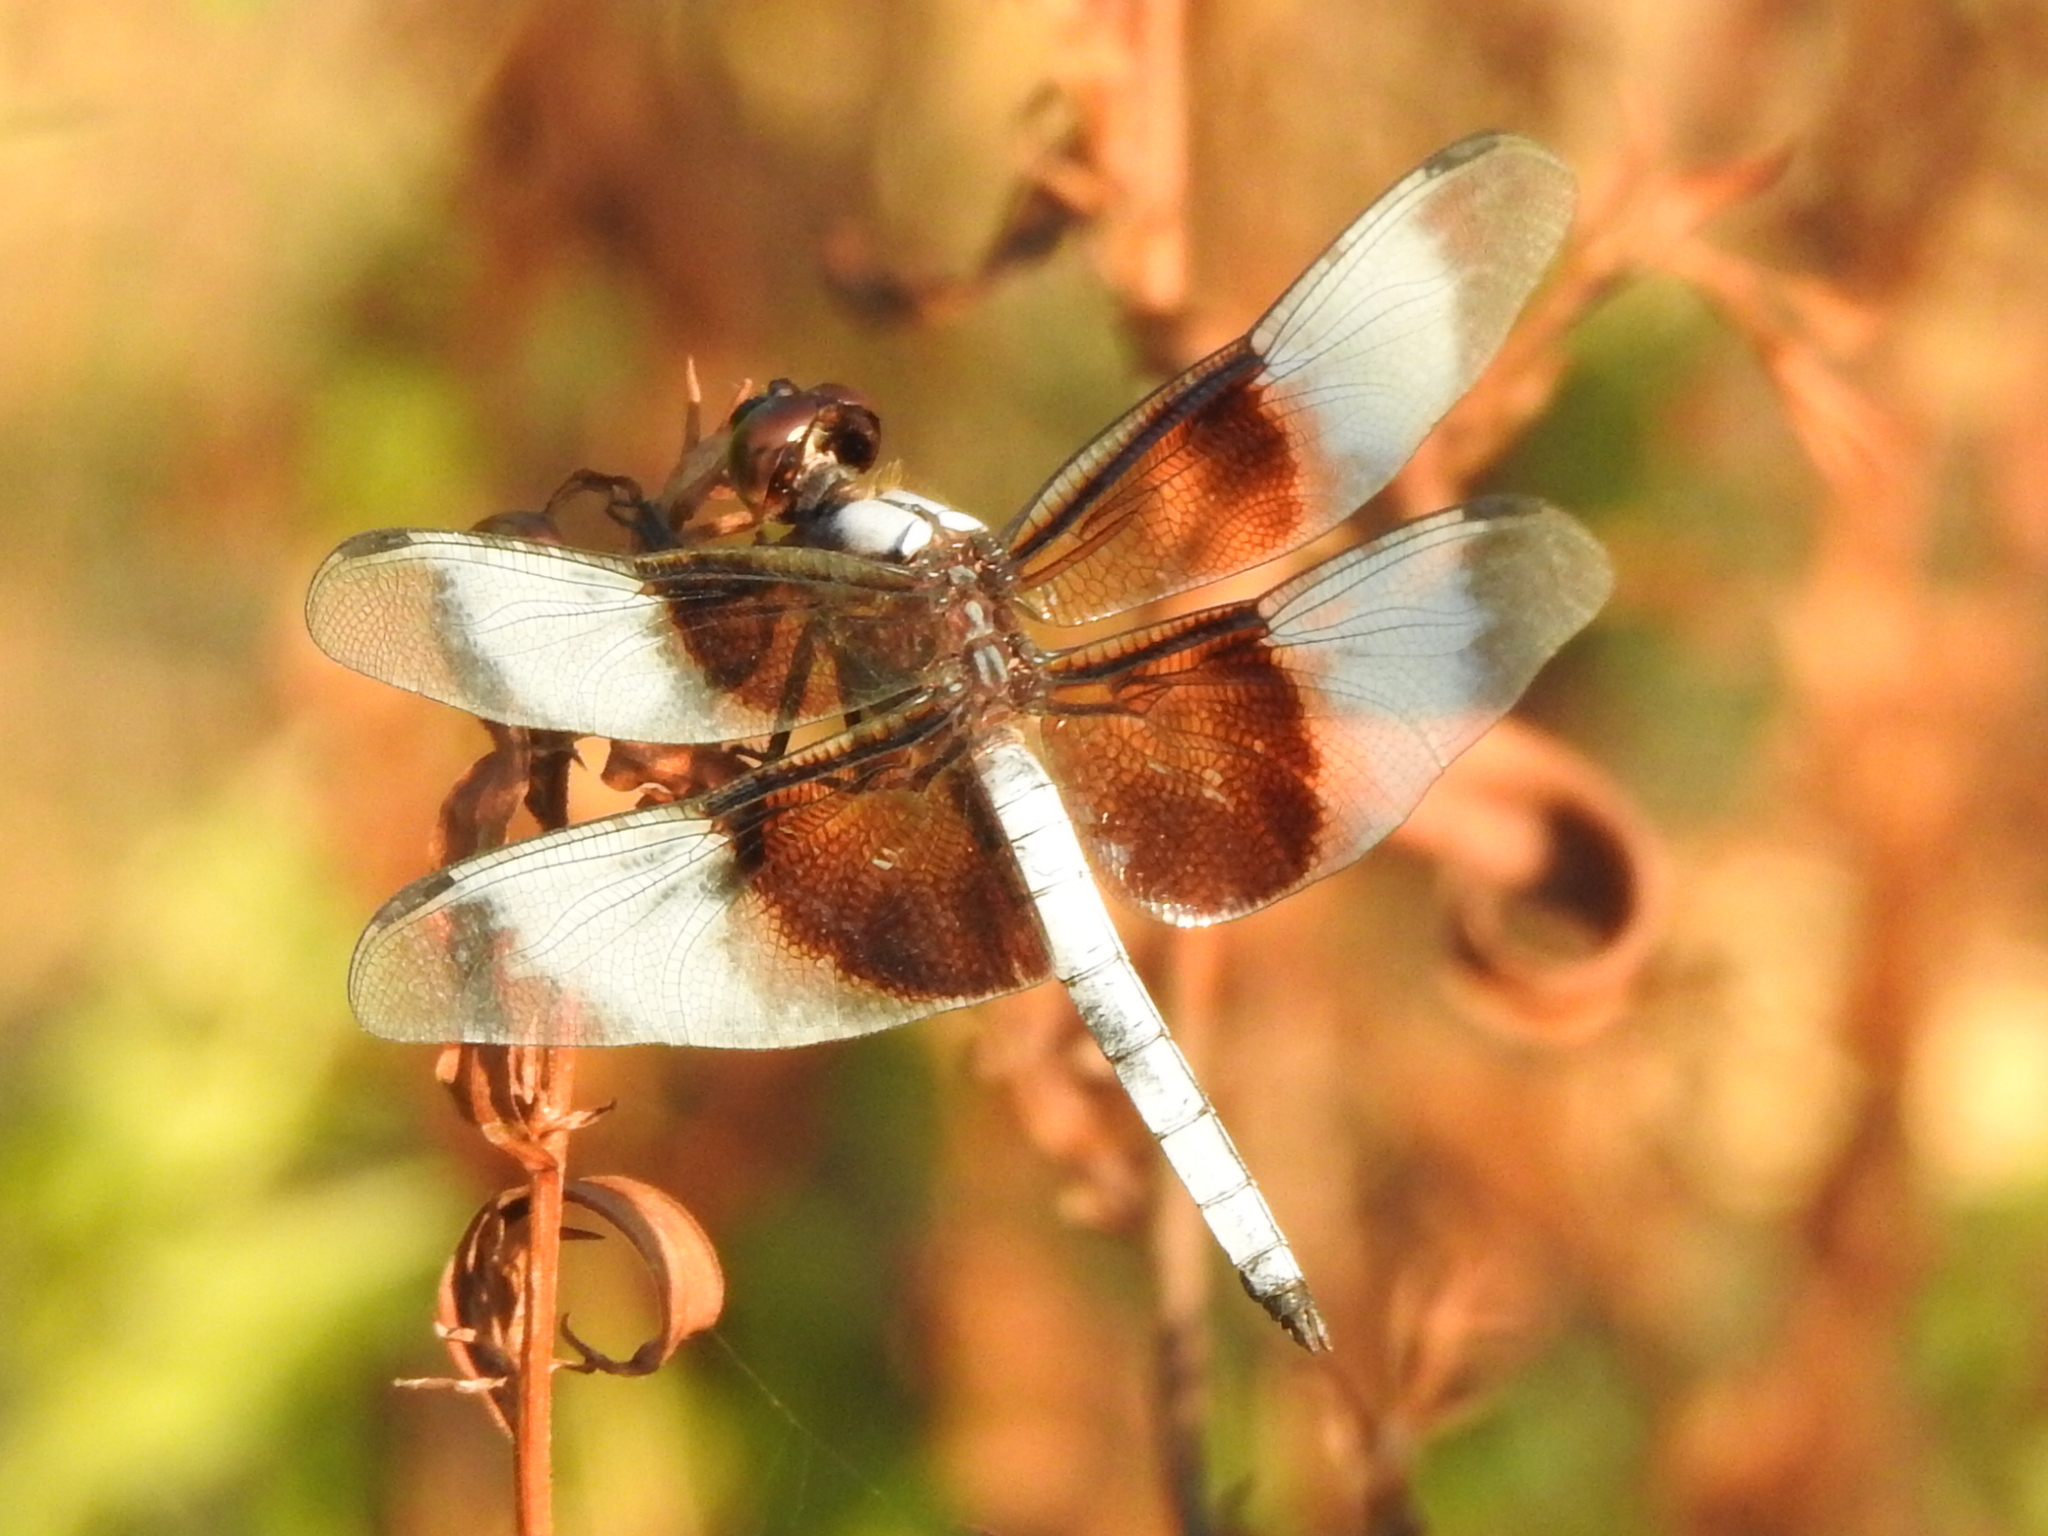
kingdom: Animalia
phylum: Arthropoda
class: Insecta
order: Odonata
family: Libellulidae
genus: Libellula
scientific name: Libellula luctuosa
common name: Widow skimmer
